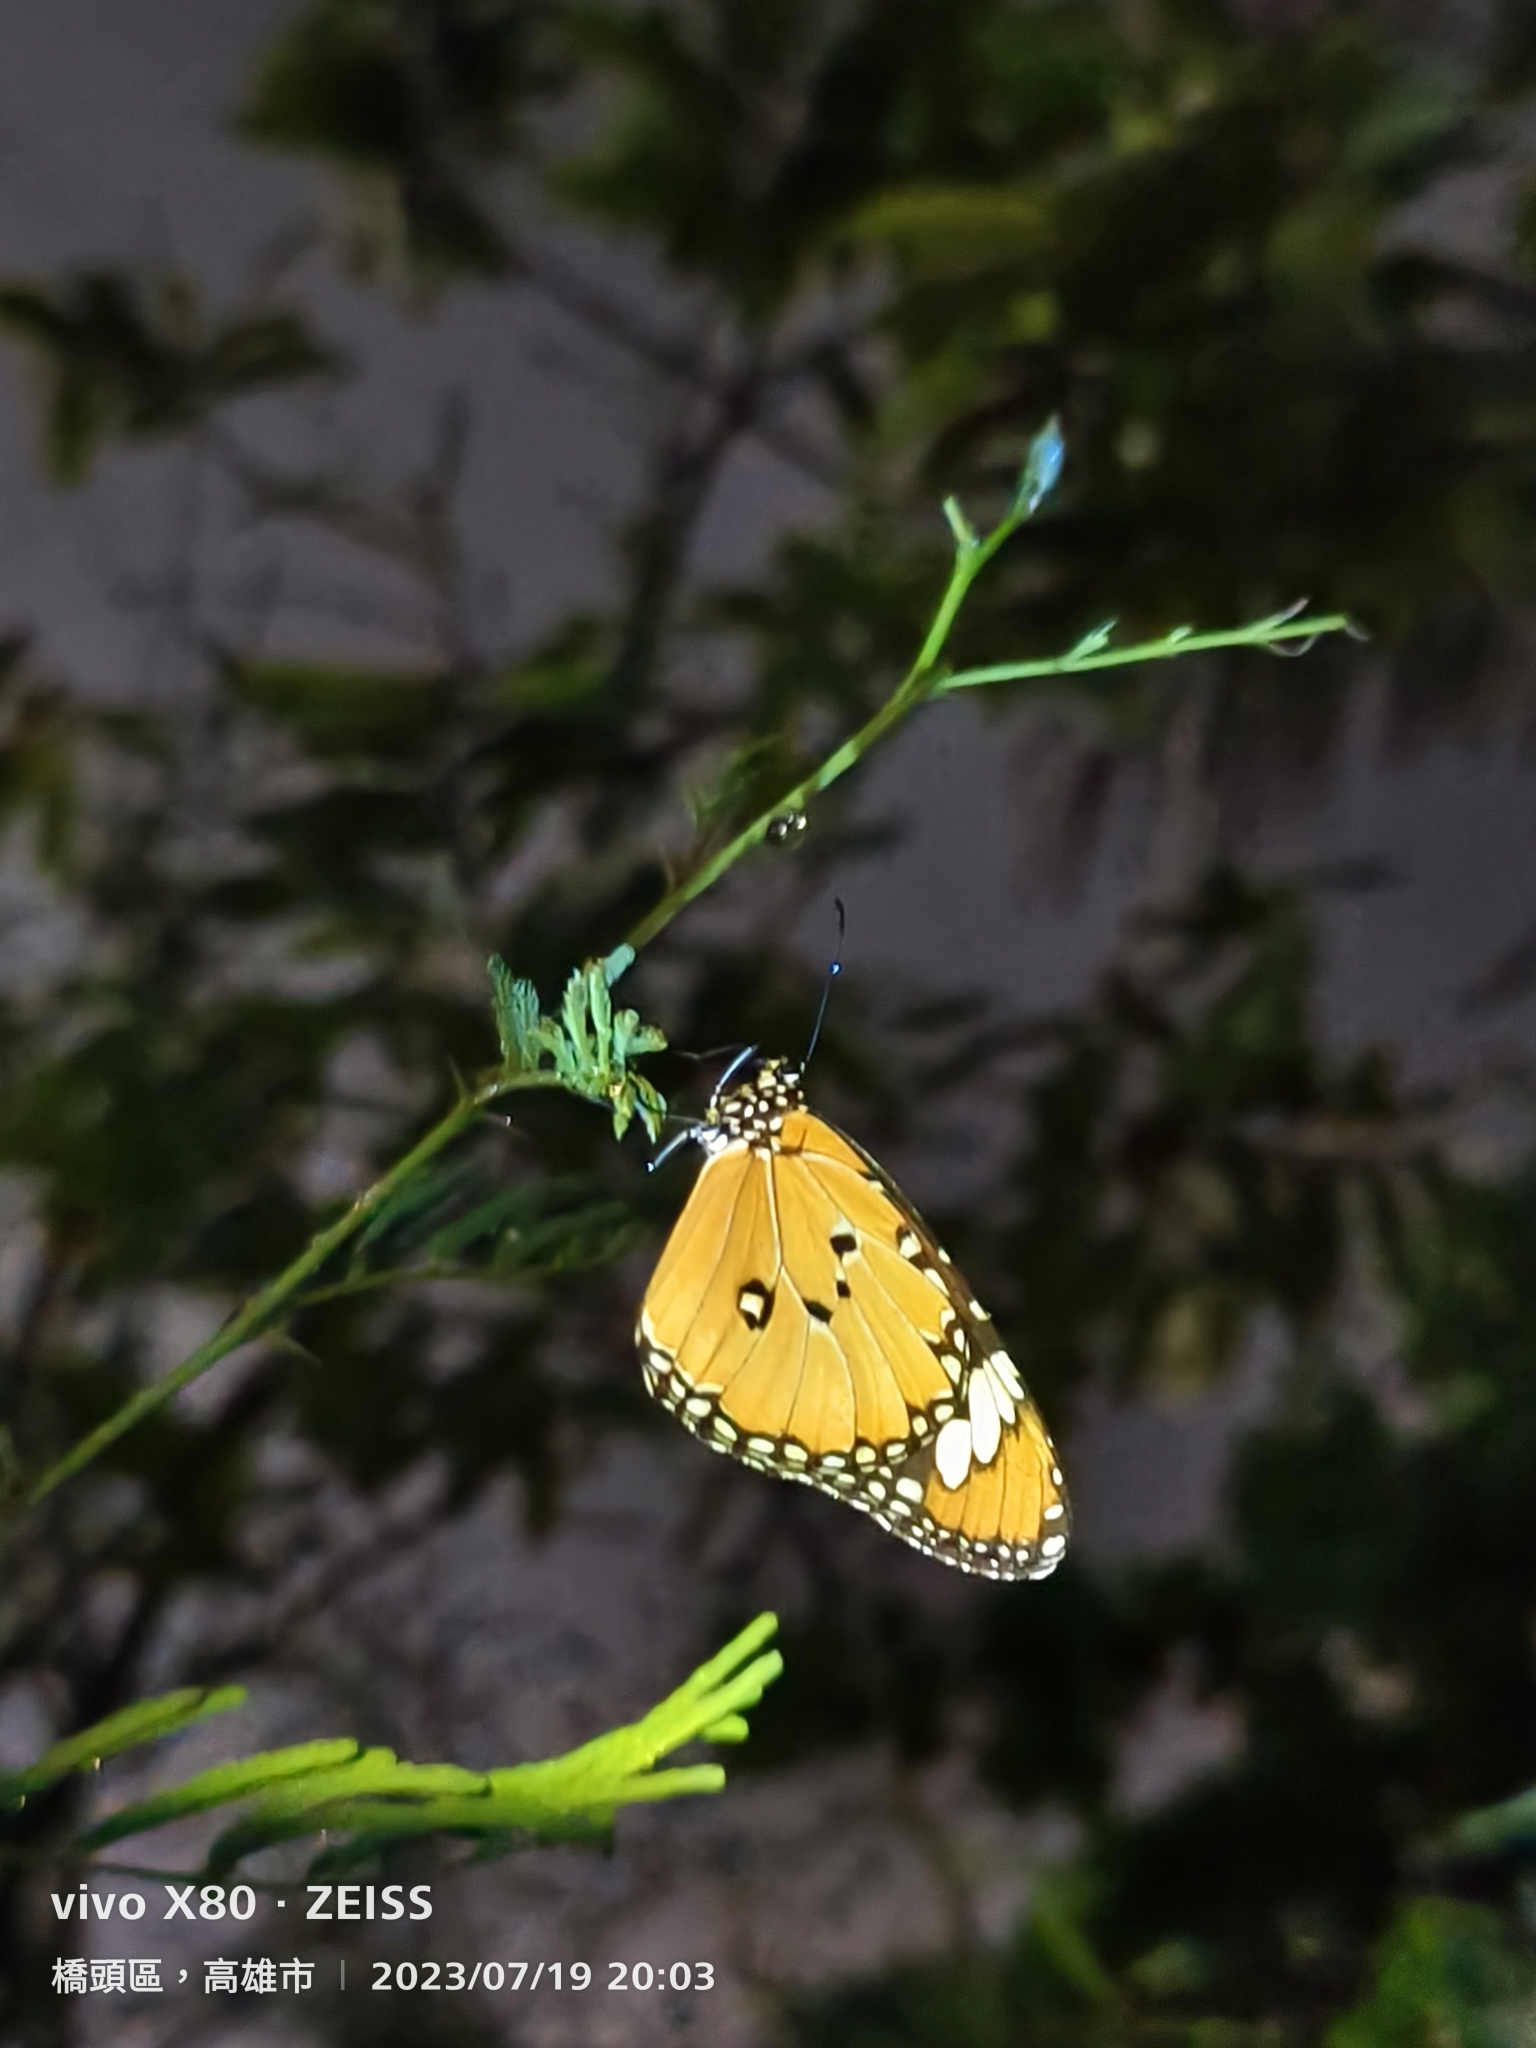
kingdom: Animalia
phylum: Arthropoda
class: Insecta
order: Lepidoptera
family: Nymphalidae
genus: Danaus
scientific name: Danaus chrysippus
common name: Plain tiger
